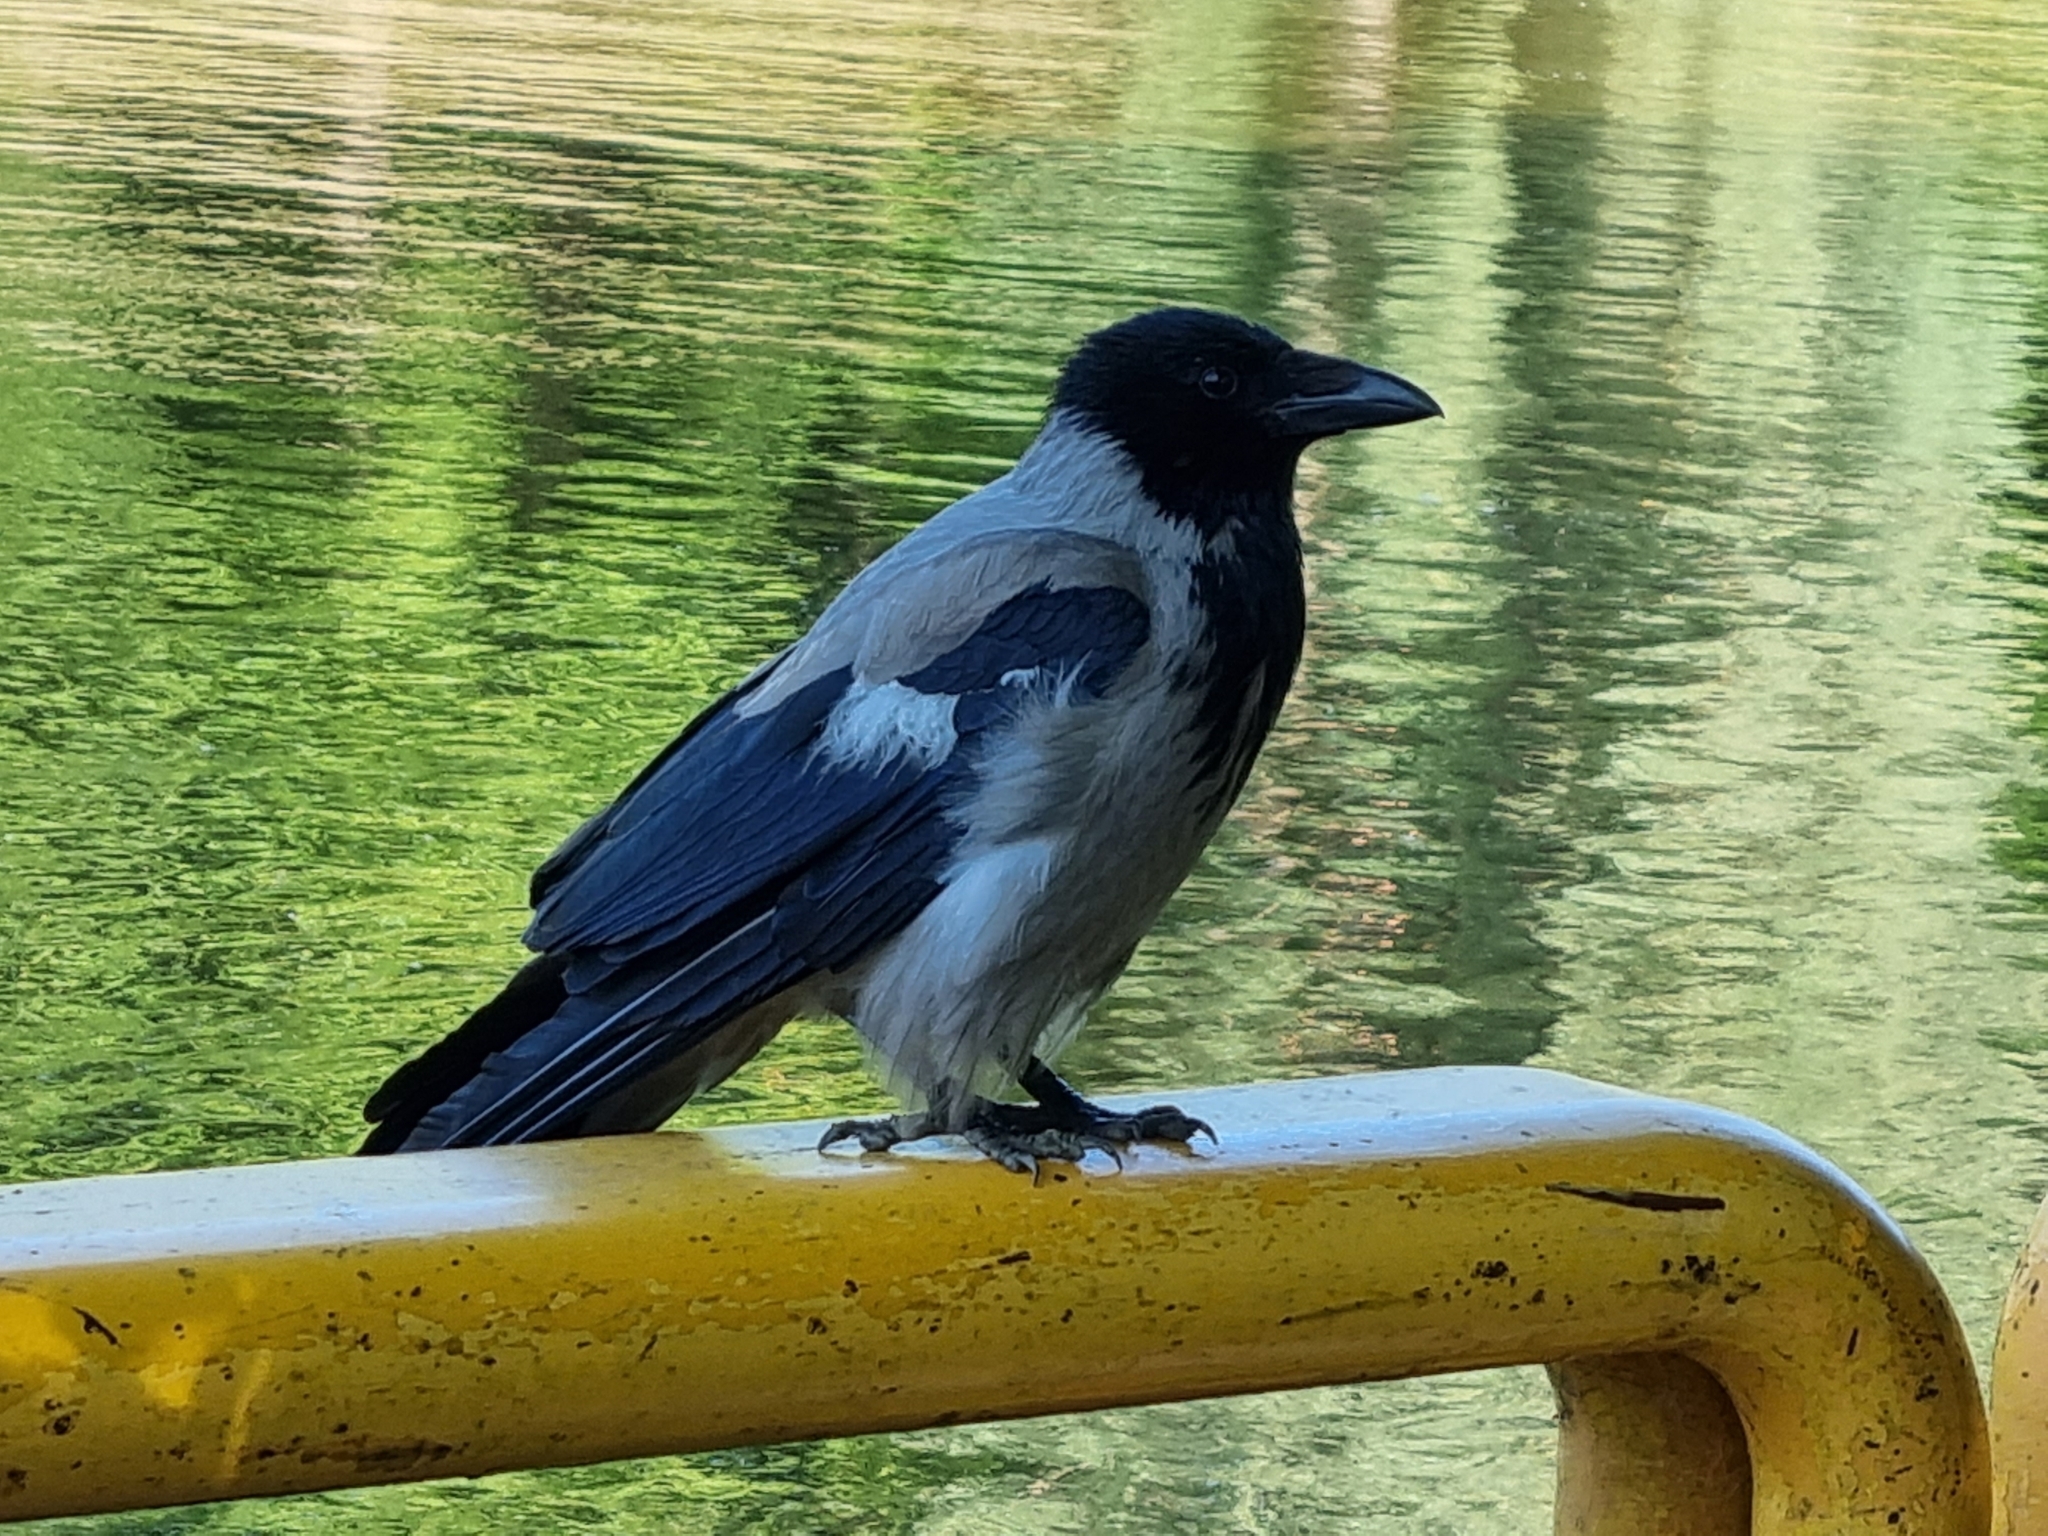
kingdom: Animalia
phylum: Chordata
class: Aves
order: Passeriformes
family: Corvidae
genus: Corvus
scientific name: Corvus cornix
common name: Hooded crow
